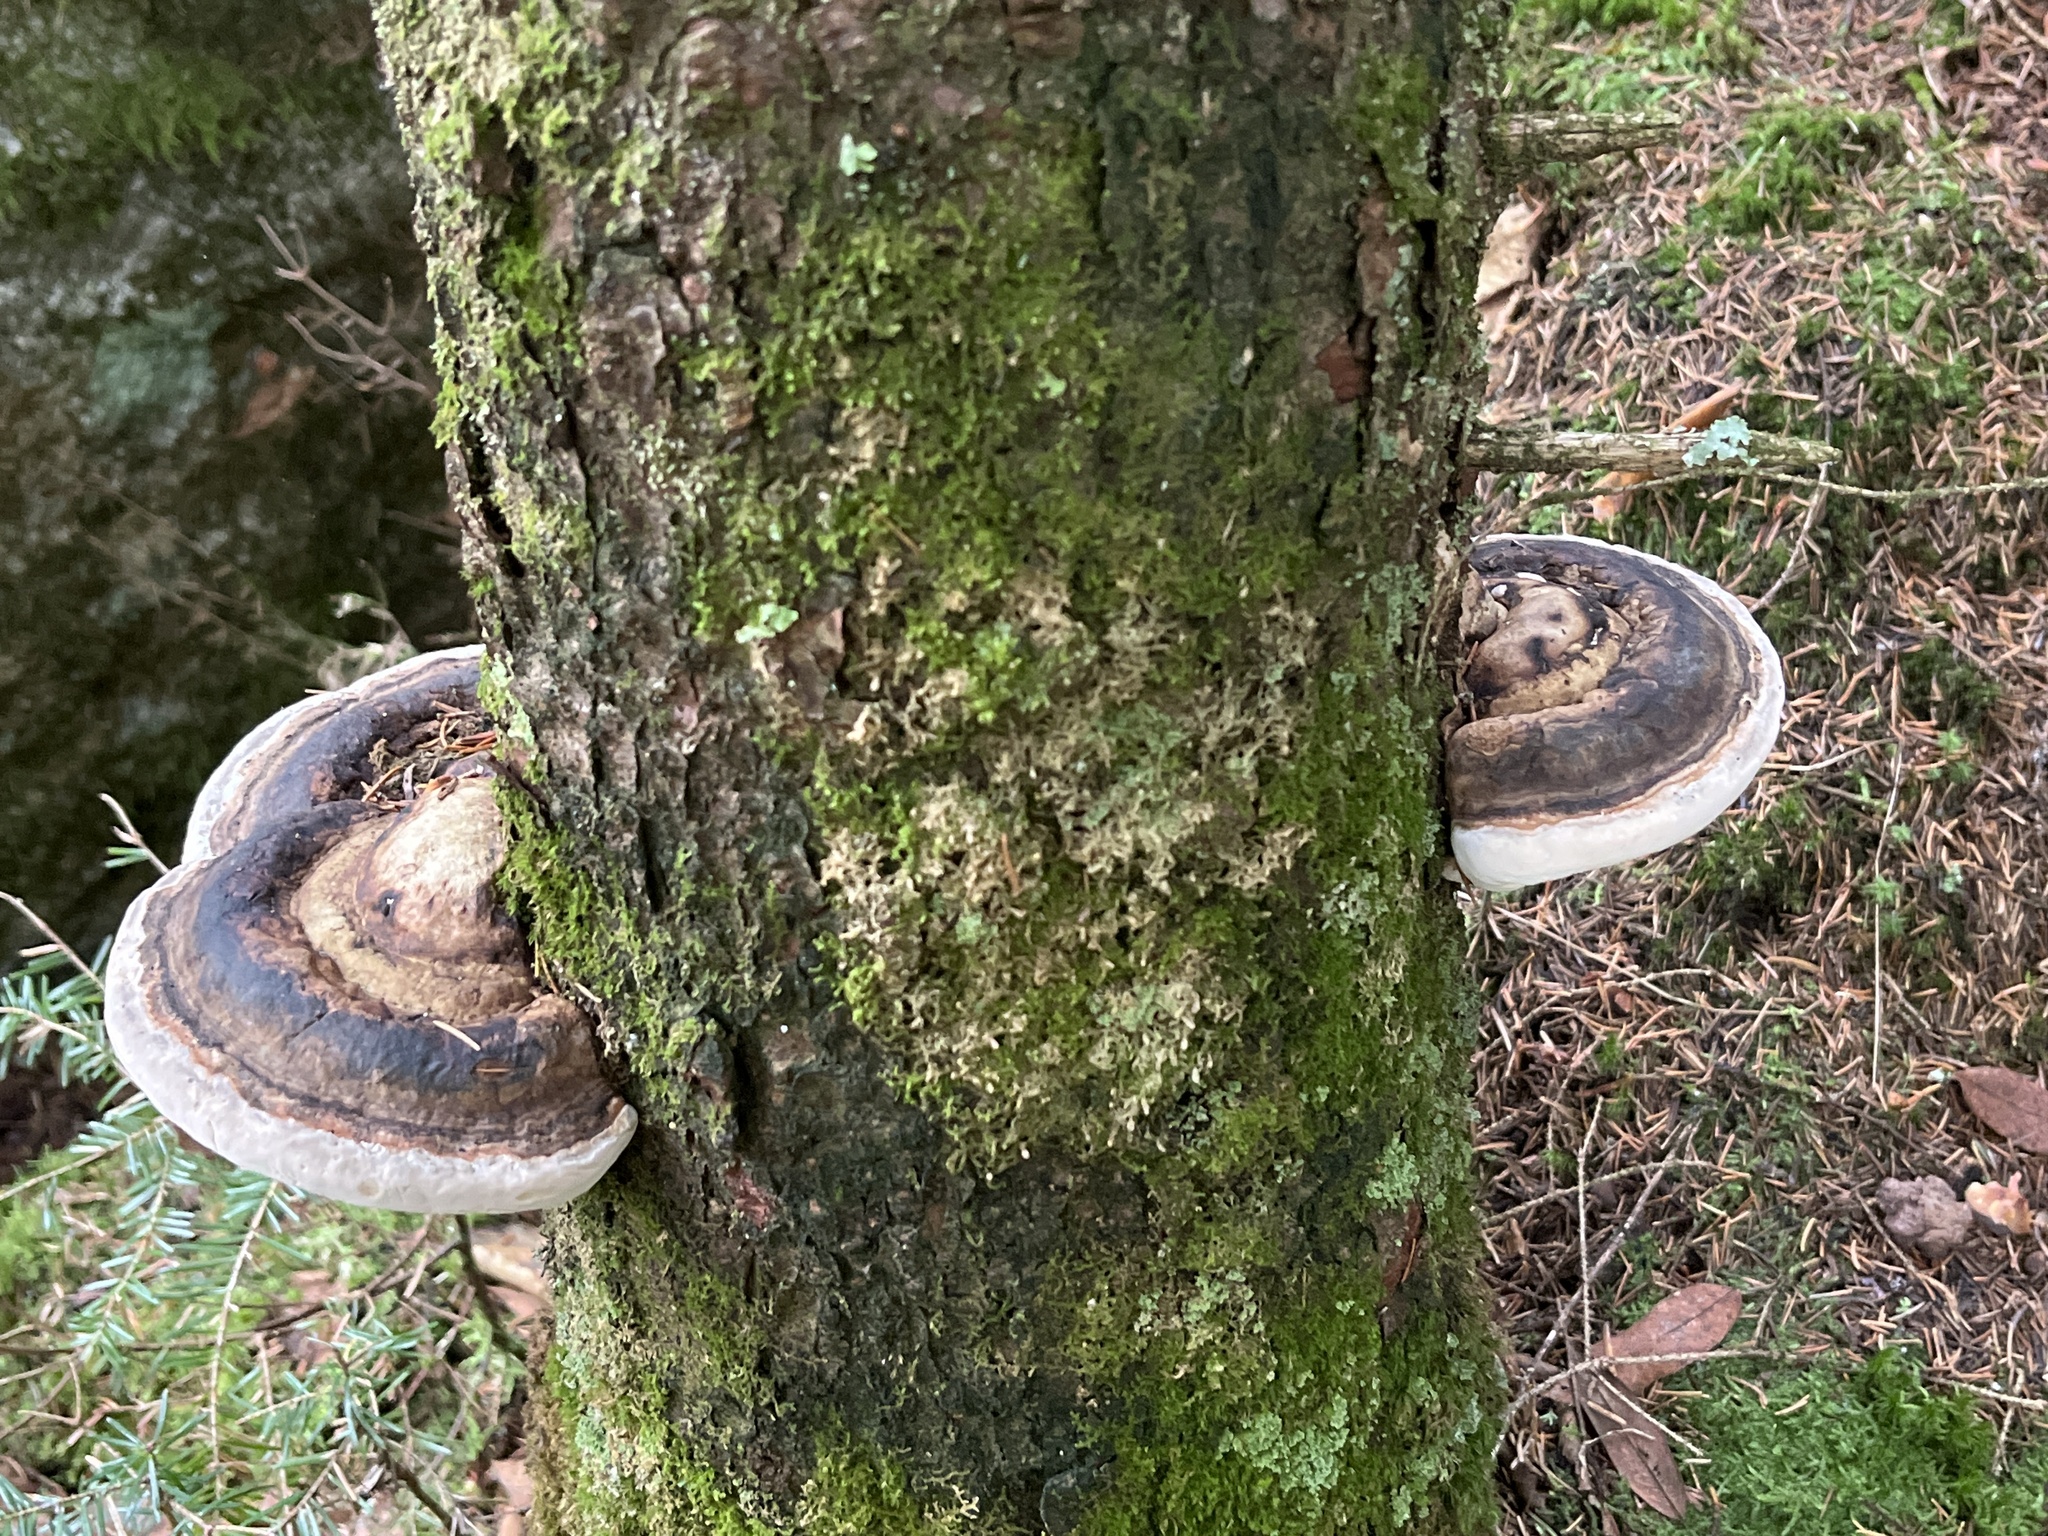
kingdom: Fungi
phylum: Basidiomycota
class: Agaricomycetes
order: Polyporales
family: Fomitopsidaceae
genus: Fomitopsis
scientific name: Fomitopsis ochracea
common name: American brown fomitopsis
